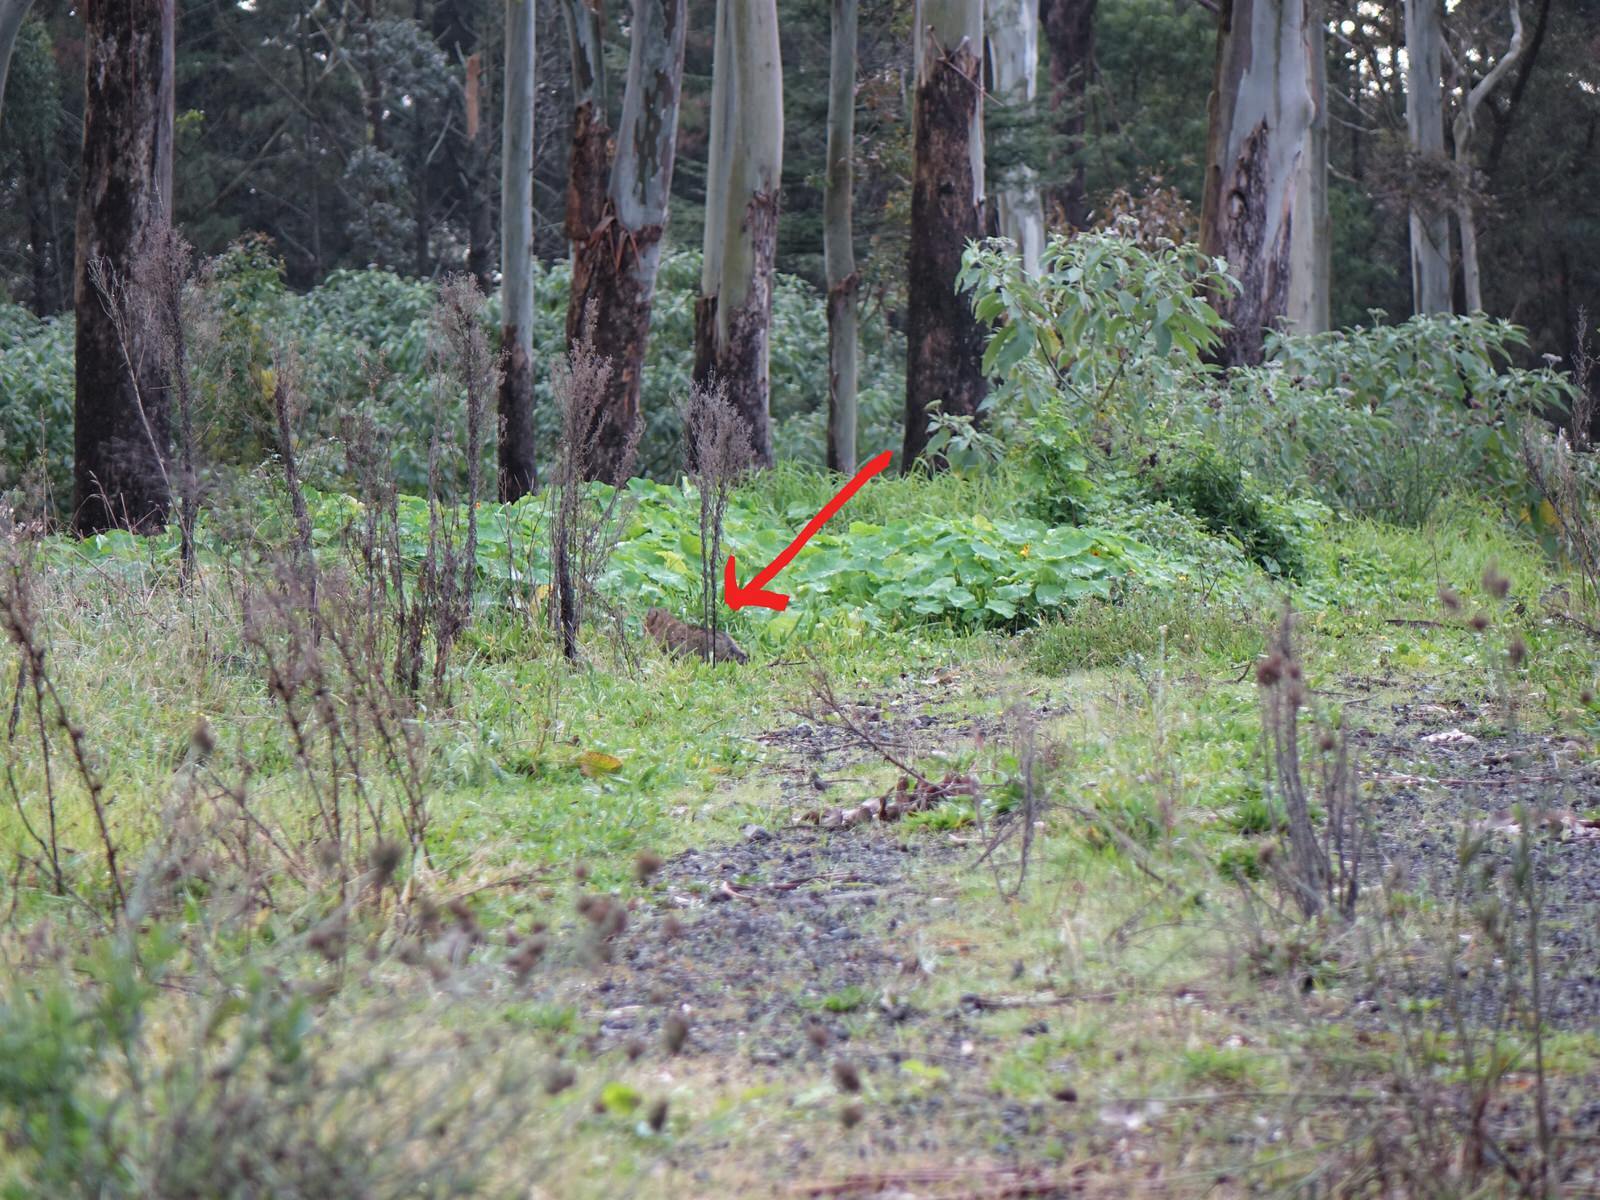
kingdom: Animalia
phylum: Chordata
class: Mammalia
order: Carnivora
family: Felidae
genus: Felis
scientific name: Felis catus
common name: Domestic cat
